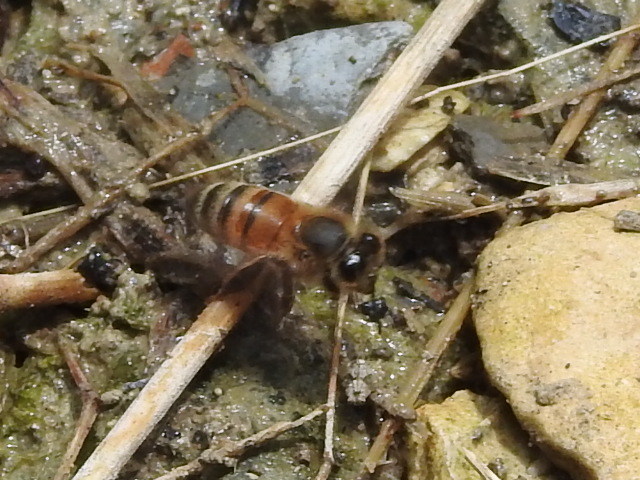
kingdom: Animalia
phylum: Arthropoda
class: Insecta
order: Hymenoptera
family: Apidae
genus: Apis
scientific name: Apis mellifera
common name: Honey bee
